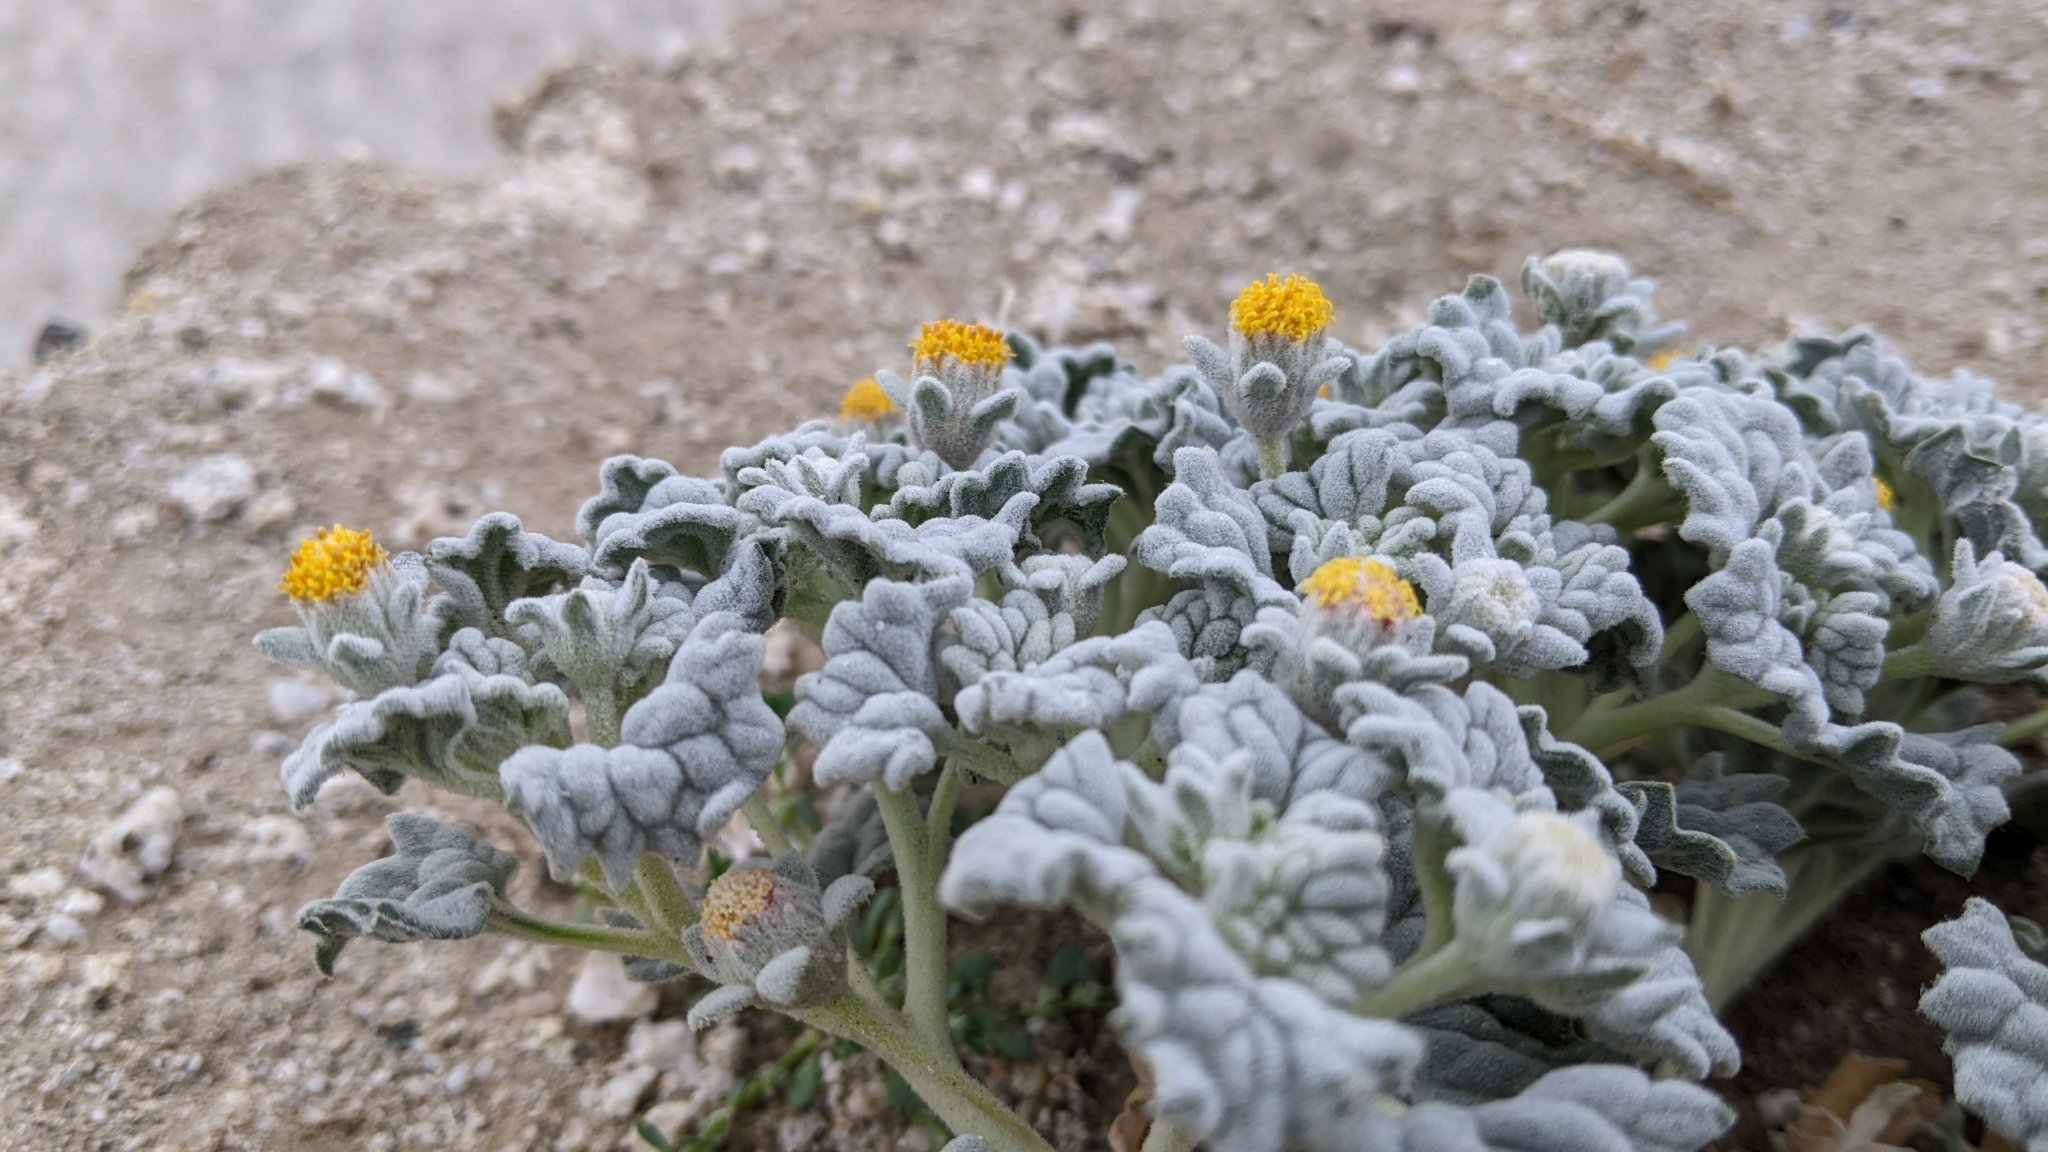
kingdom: Plantae
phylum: Tracheophyta
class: Magnoliopsida
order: Asterales
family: Asteraceae
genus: Psathyrotes
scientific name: Psathyrotes ramosissima
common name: Turtleback
